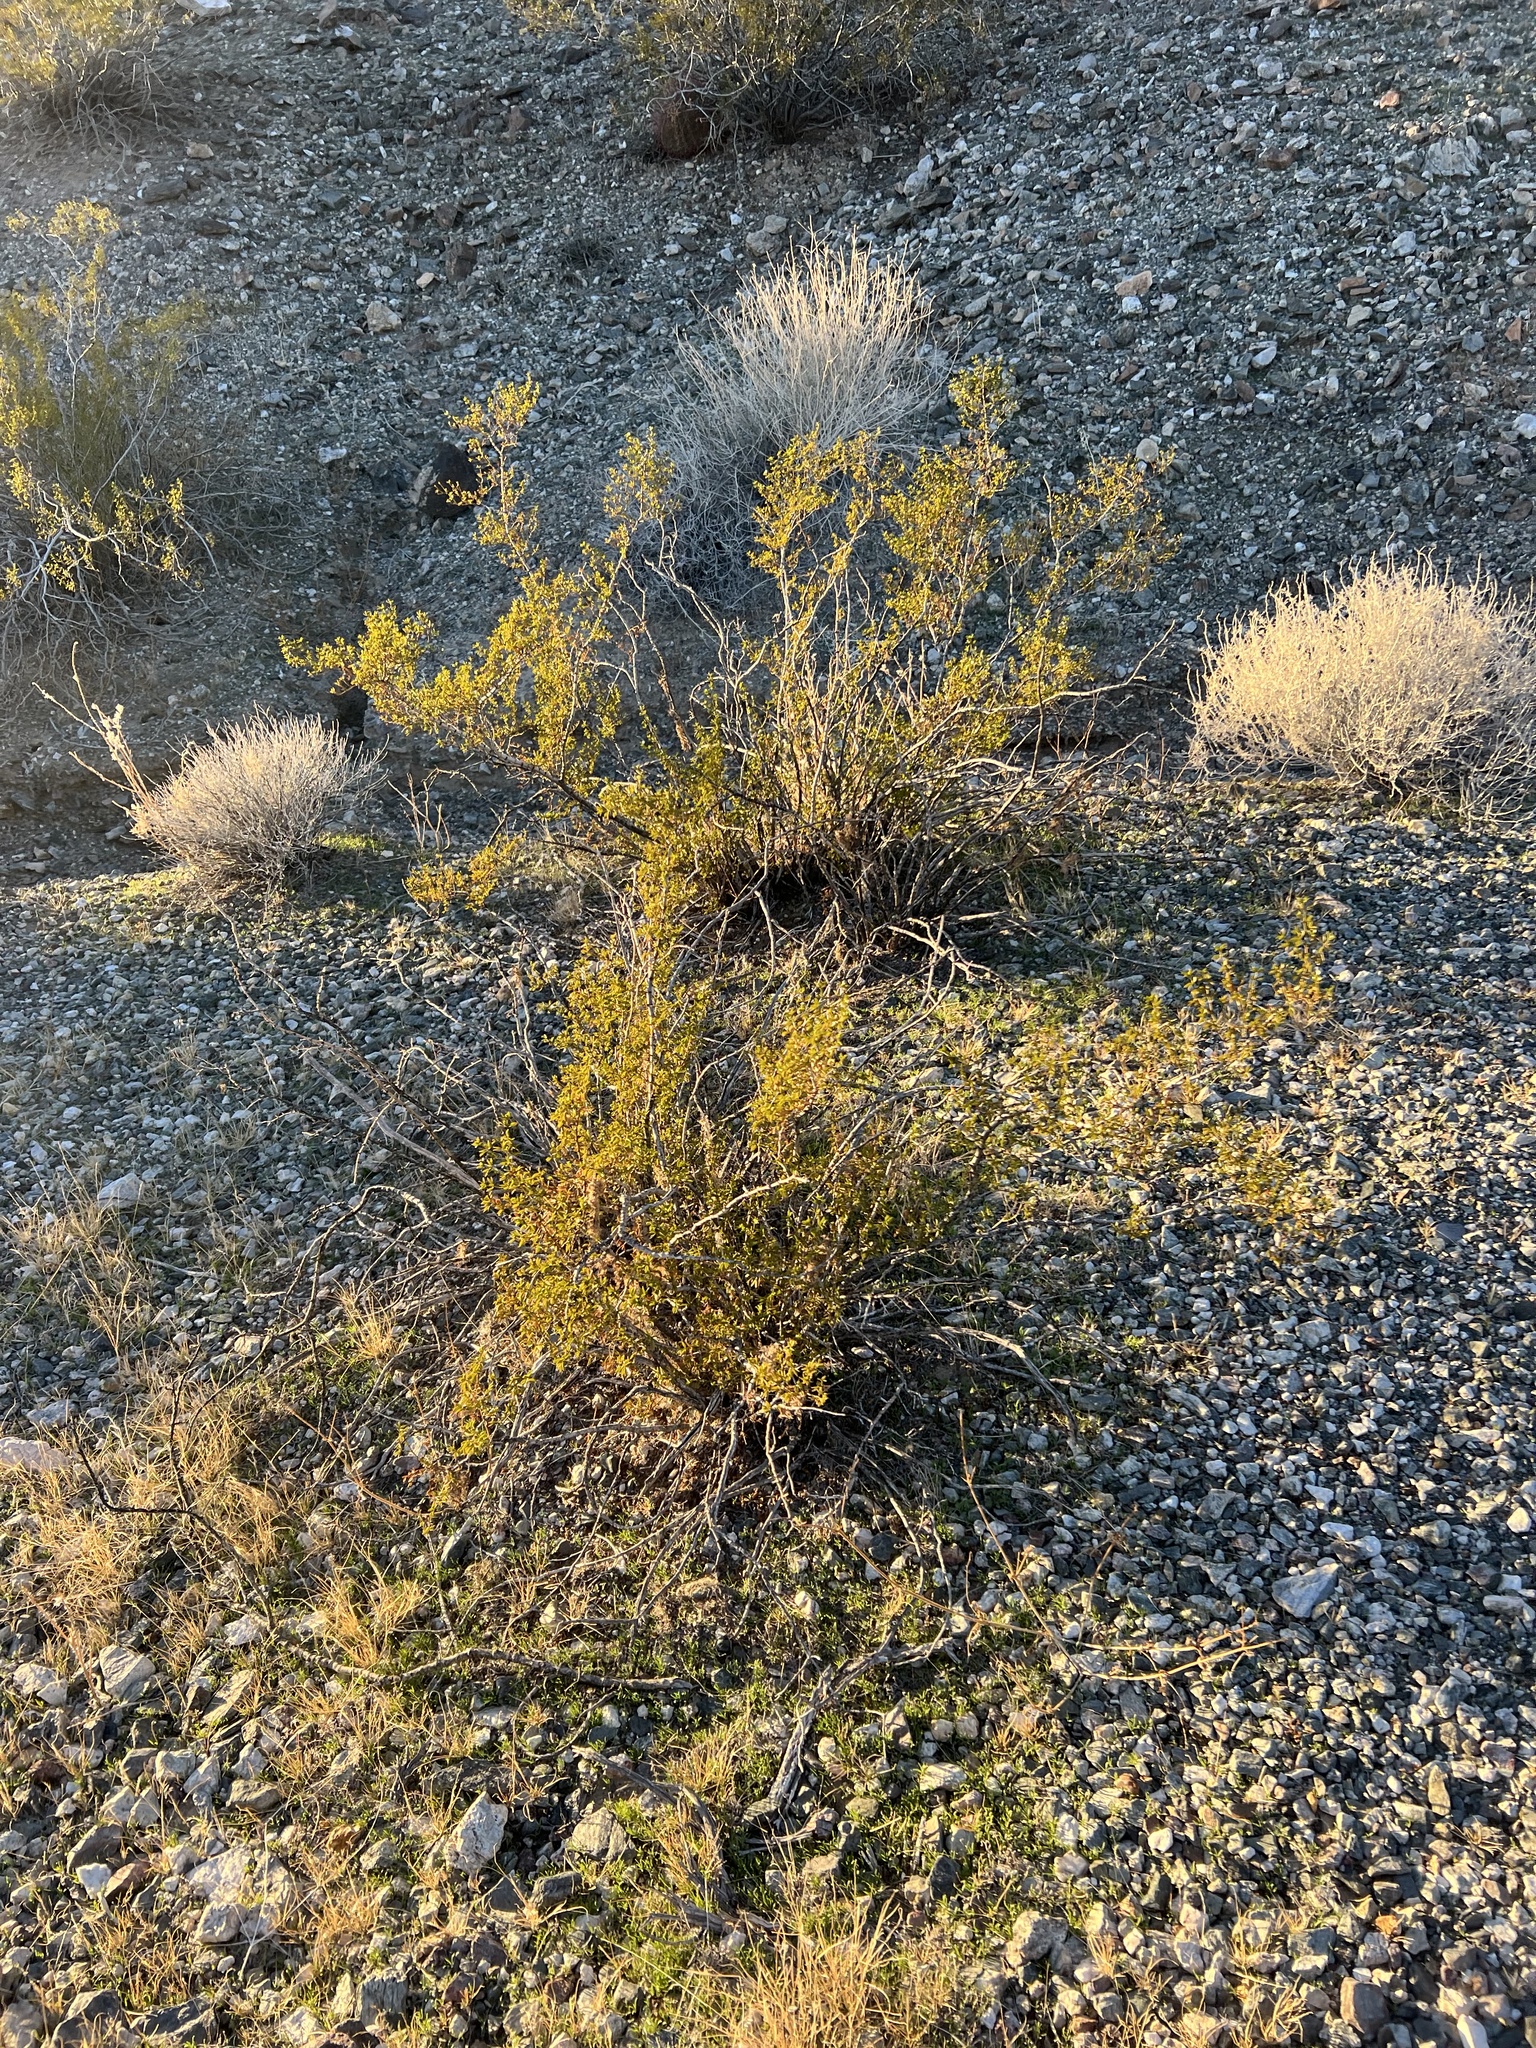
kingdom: Plantae
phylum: Tracheophyta
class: Magnoliopsida
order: Zygophyllales
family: Zygophyllaceae
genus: Larrea
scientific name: Larrea tridentata
